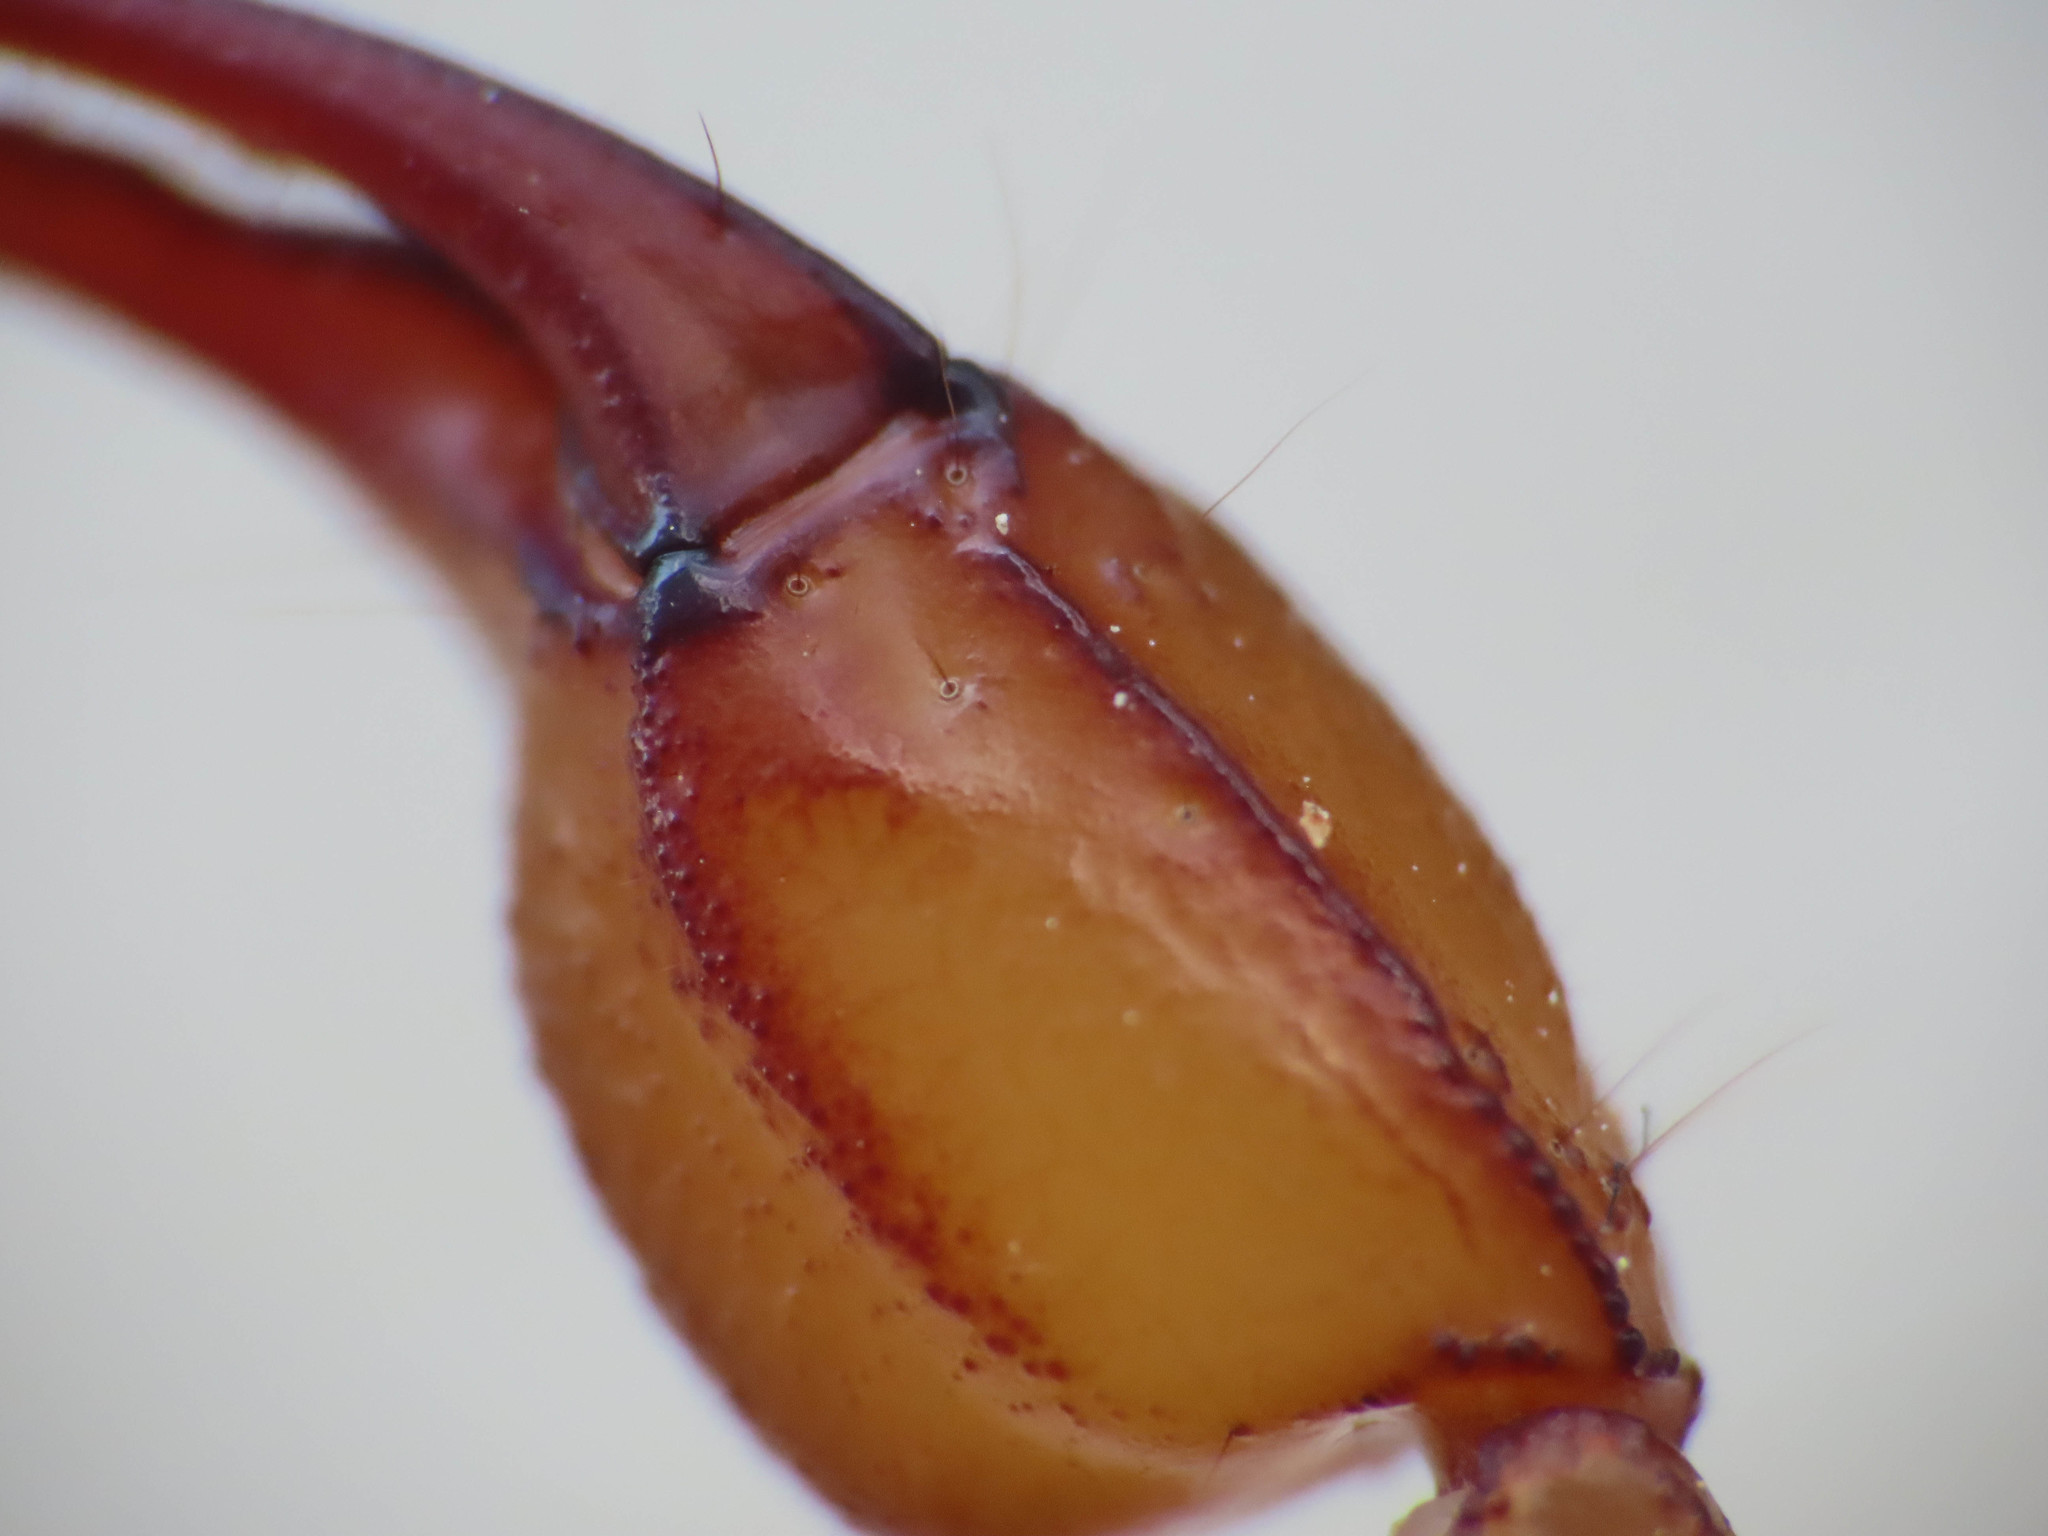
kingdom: Animalia
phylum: Arthropoda
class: Arachnida
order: Scorpiones
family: Euscorpiidae
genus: Euscorpius
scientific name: Euscorpius aquilejensis
